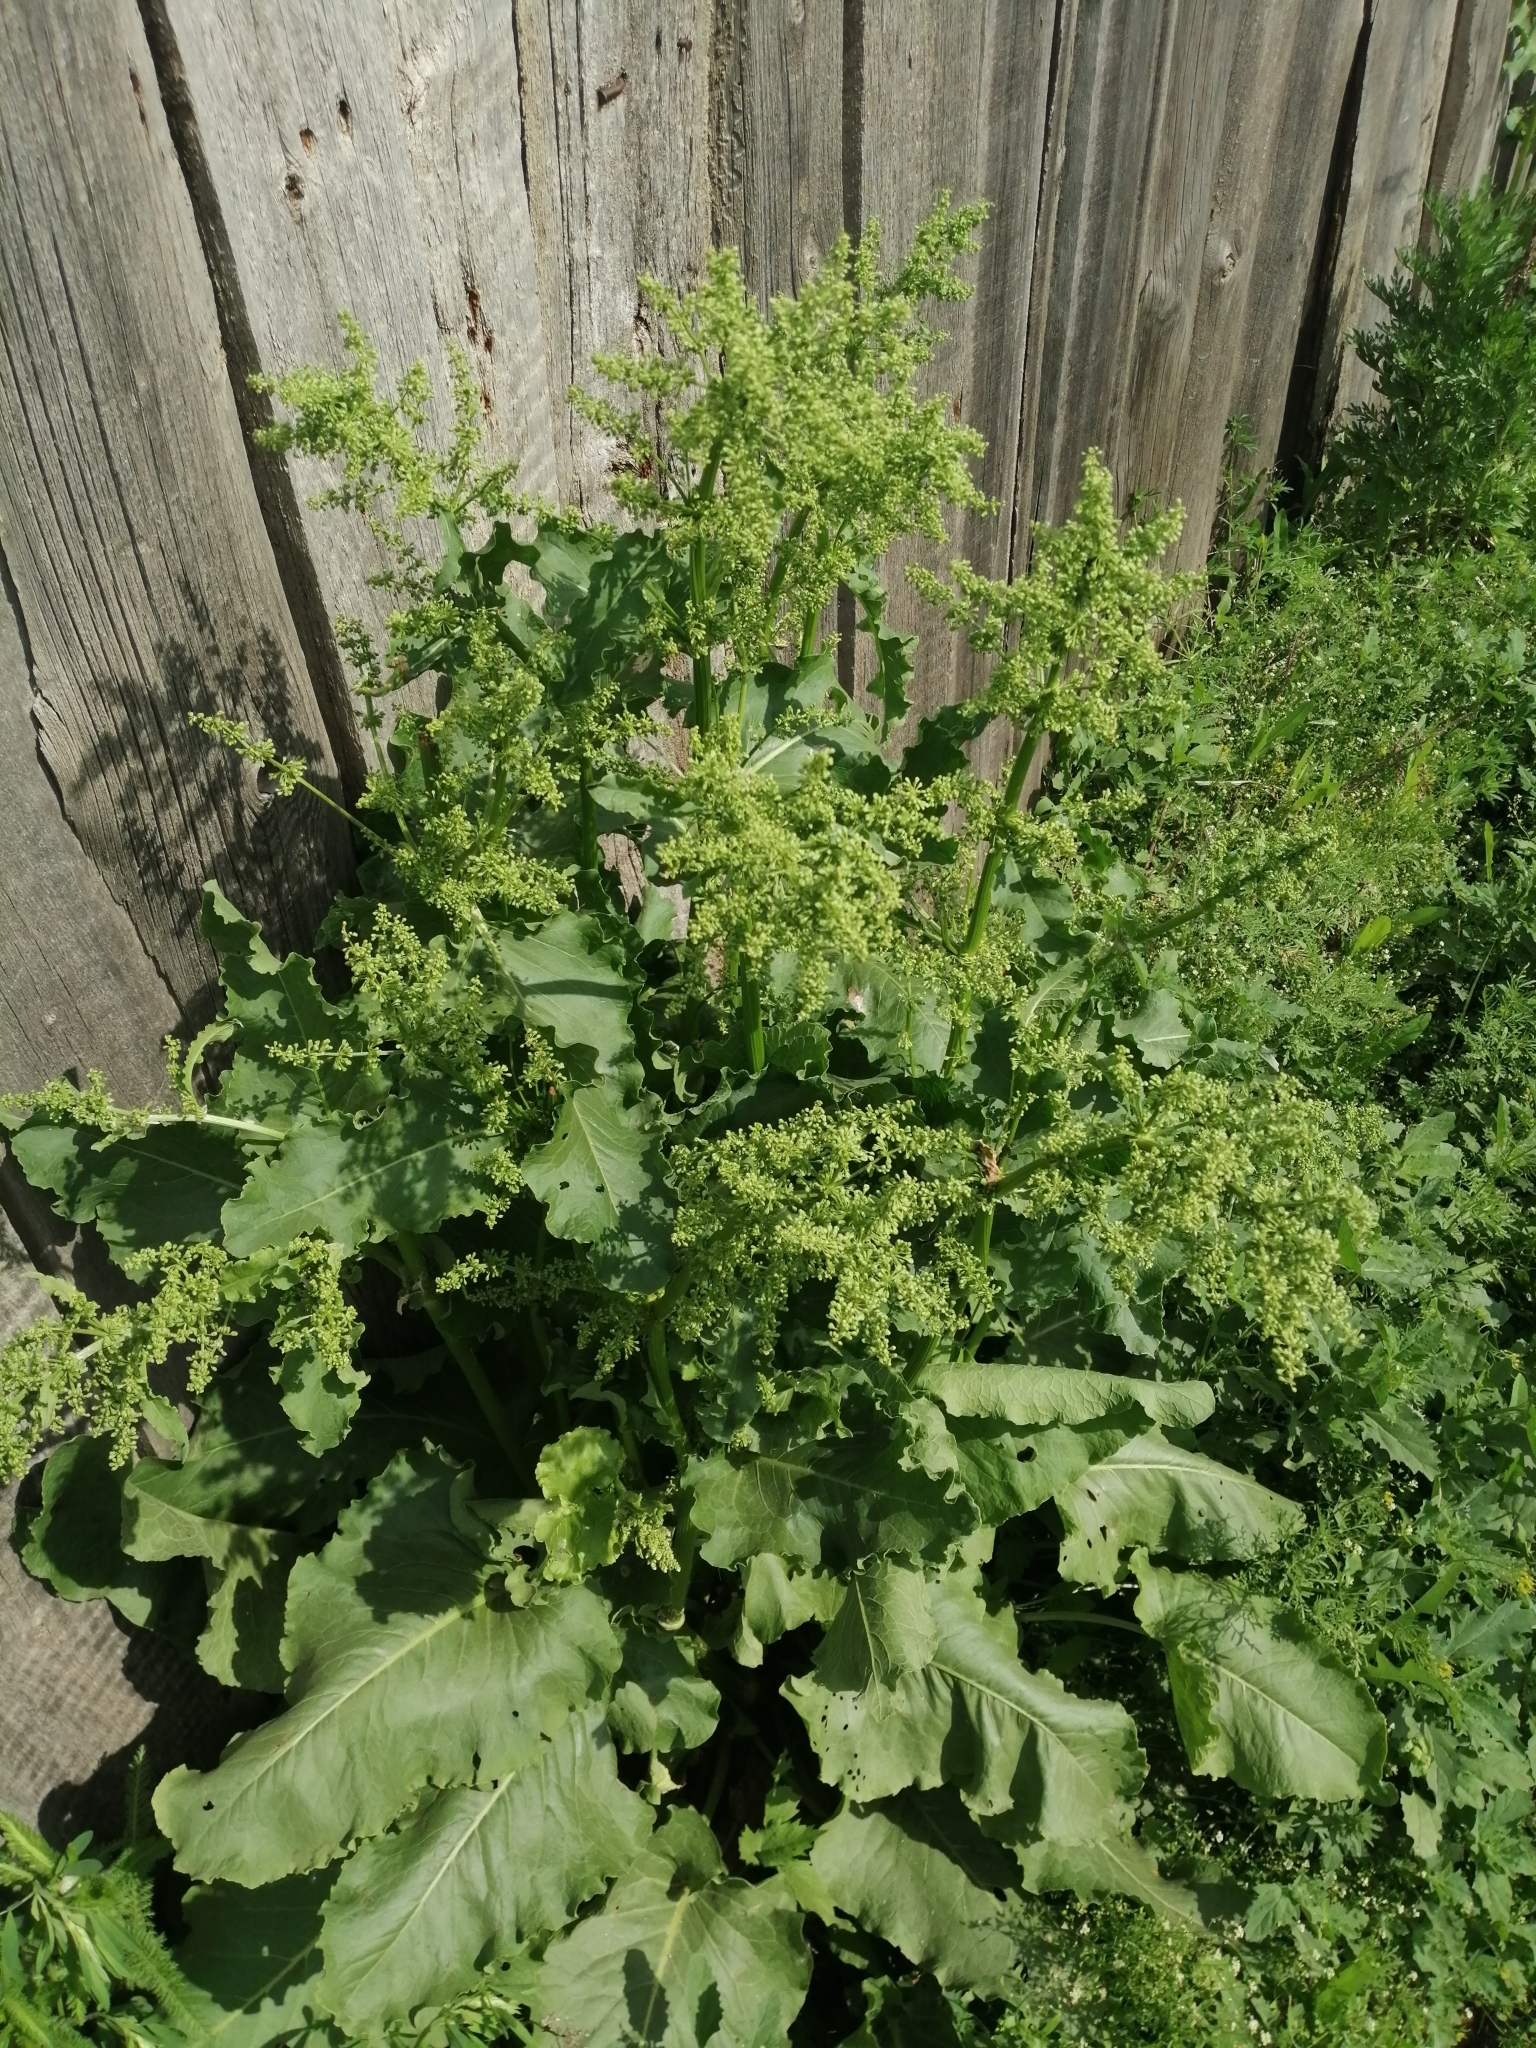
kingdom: Plantae
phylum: Tracheophyta
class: Magnoliopsida
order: Caryophyllales
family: Polygonaceae
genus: Rumex
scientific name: Rumex confertus
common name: Russian dock
